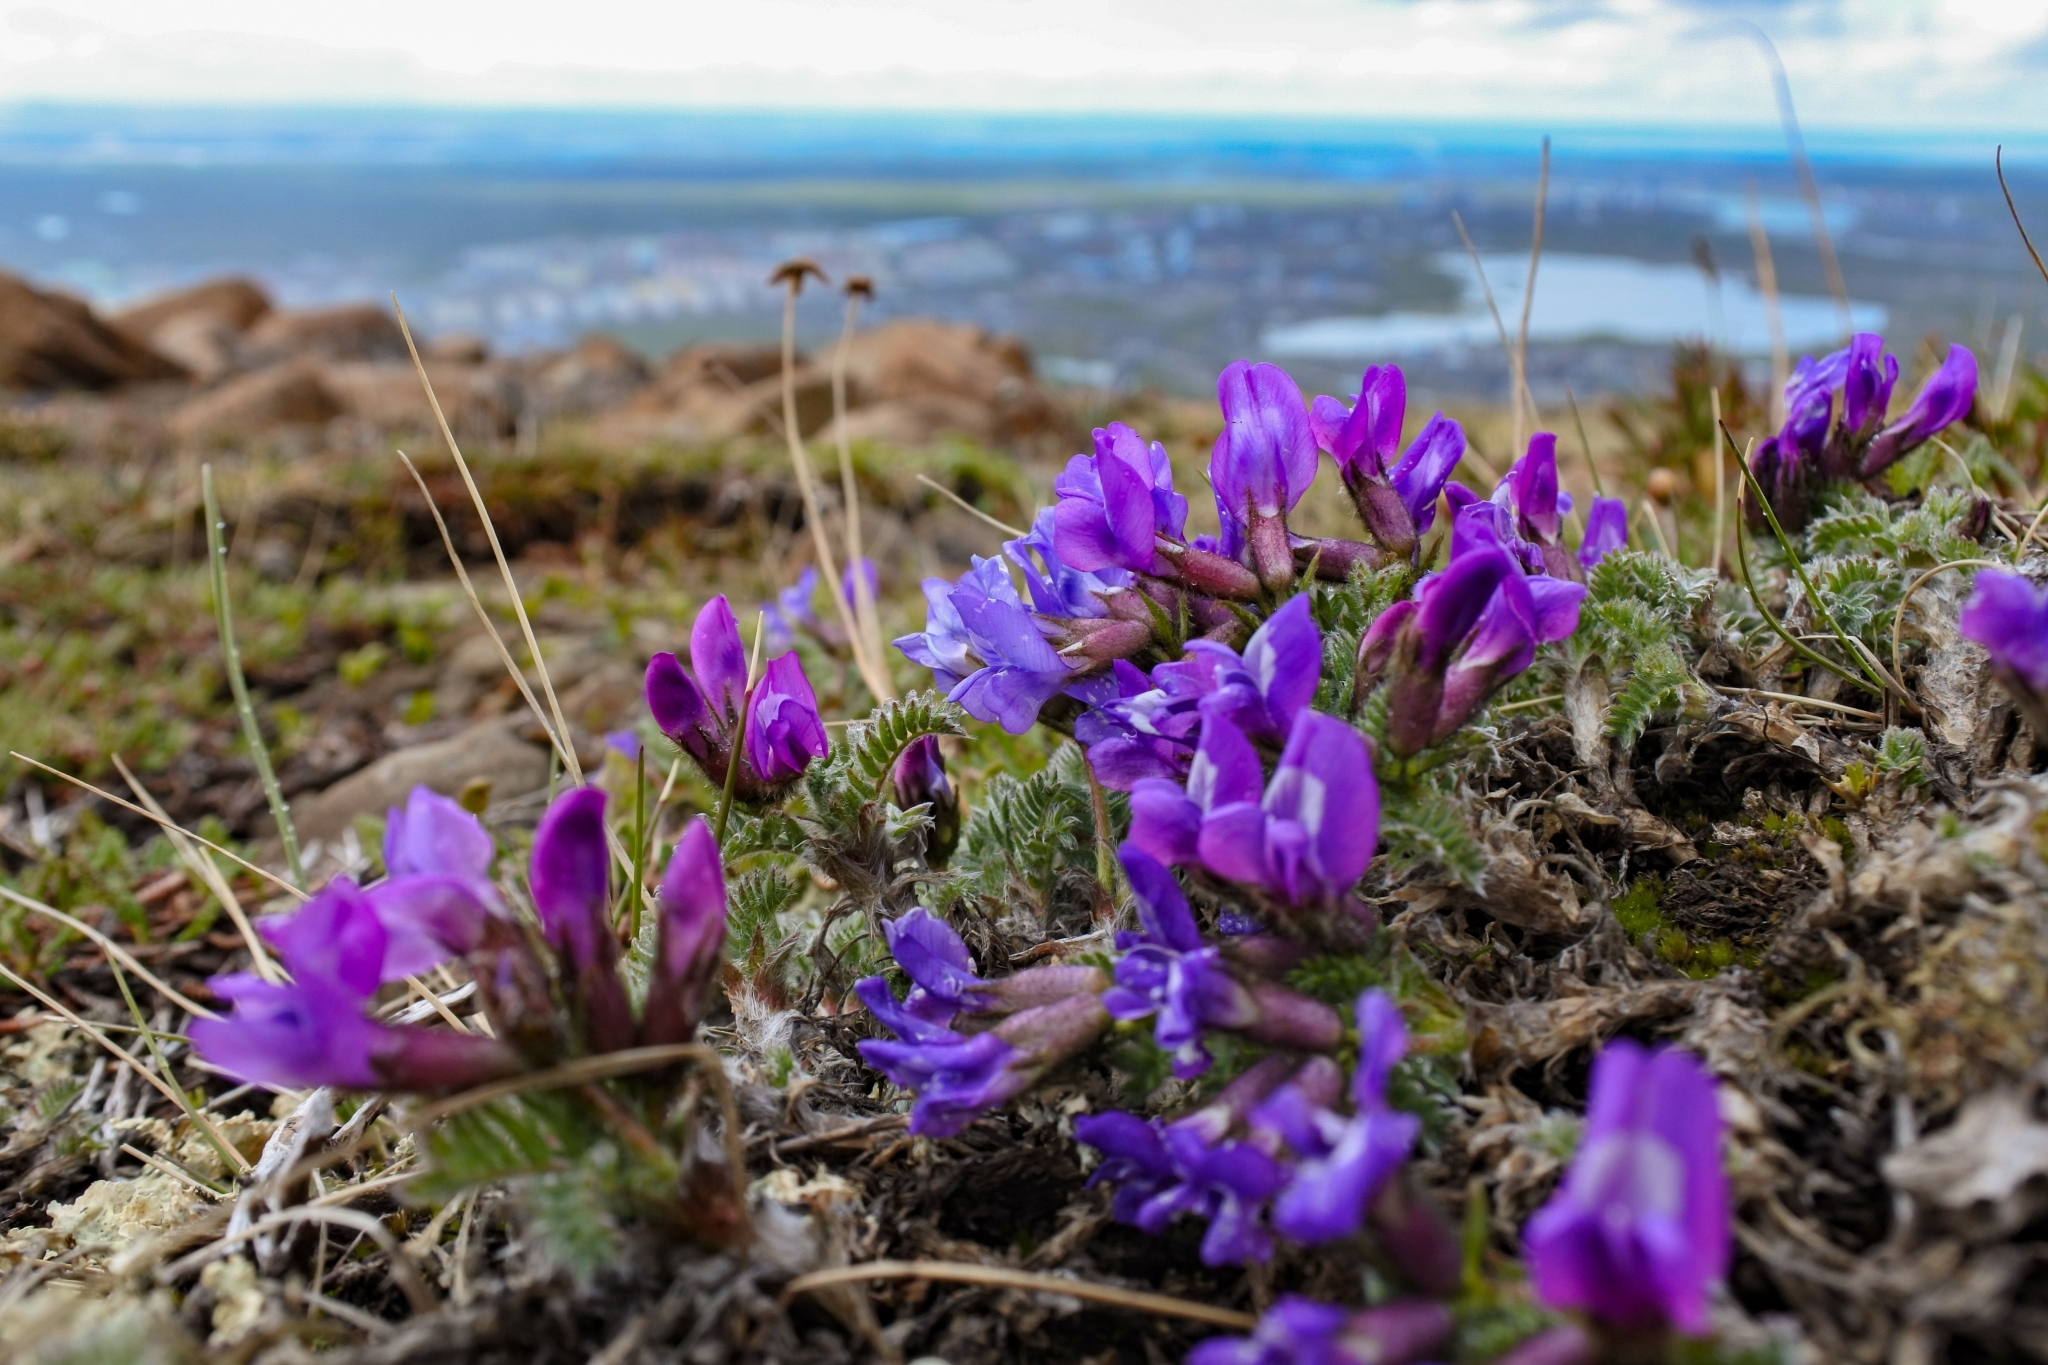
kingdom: Plantae
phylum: Tracheophyta
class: Magnoliopsida
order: Fabales
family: Fabaceae
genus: Oxytropis
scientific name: Oxytropis nigrescens
